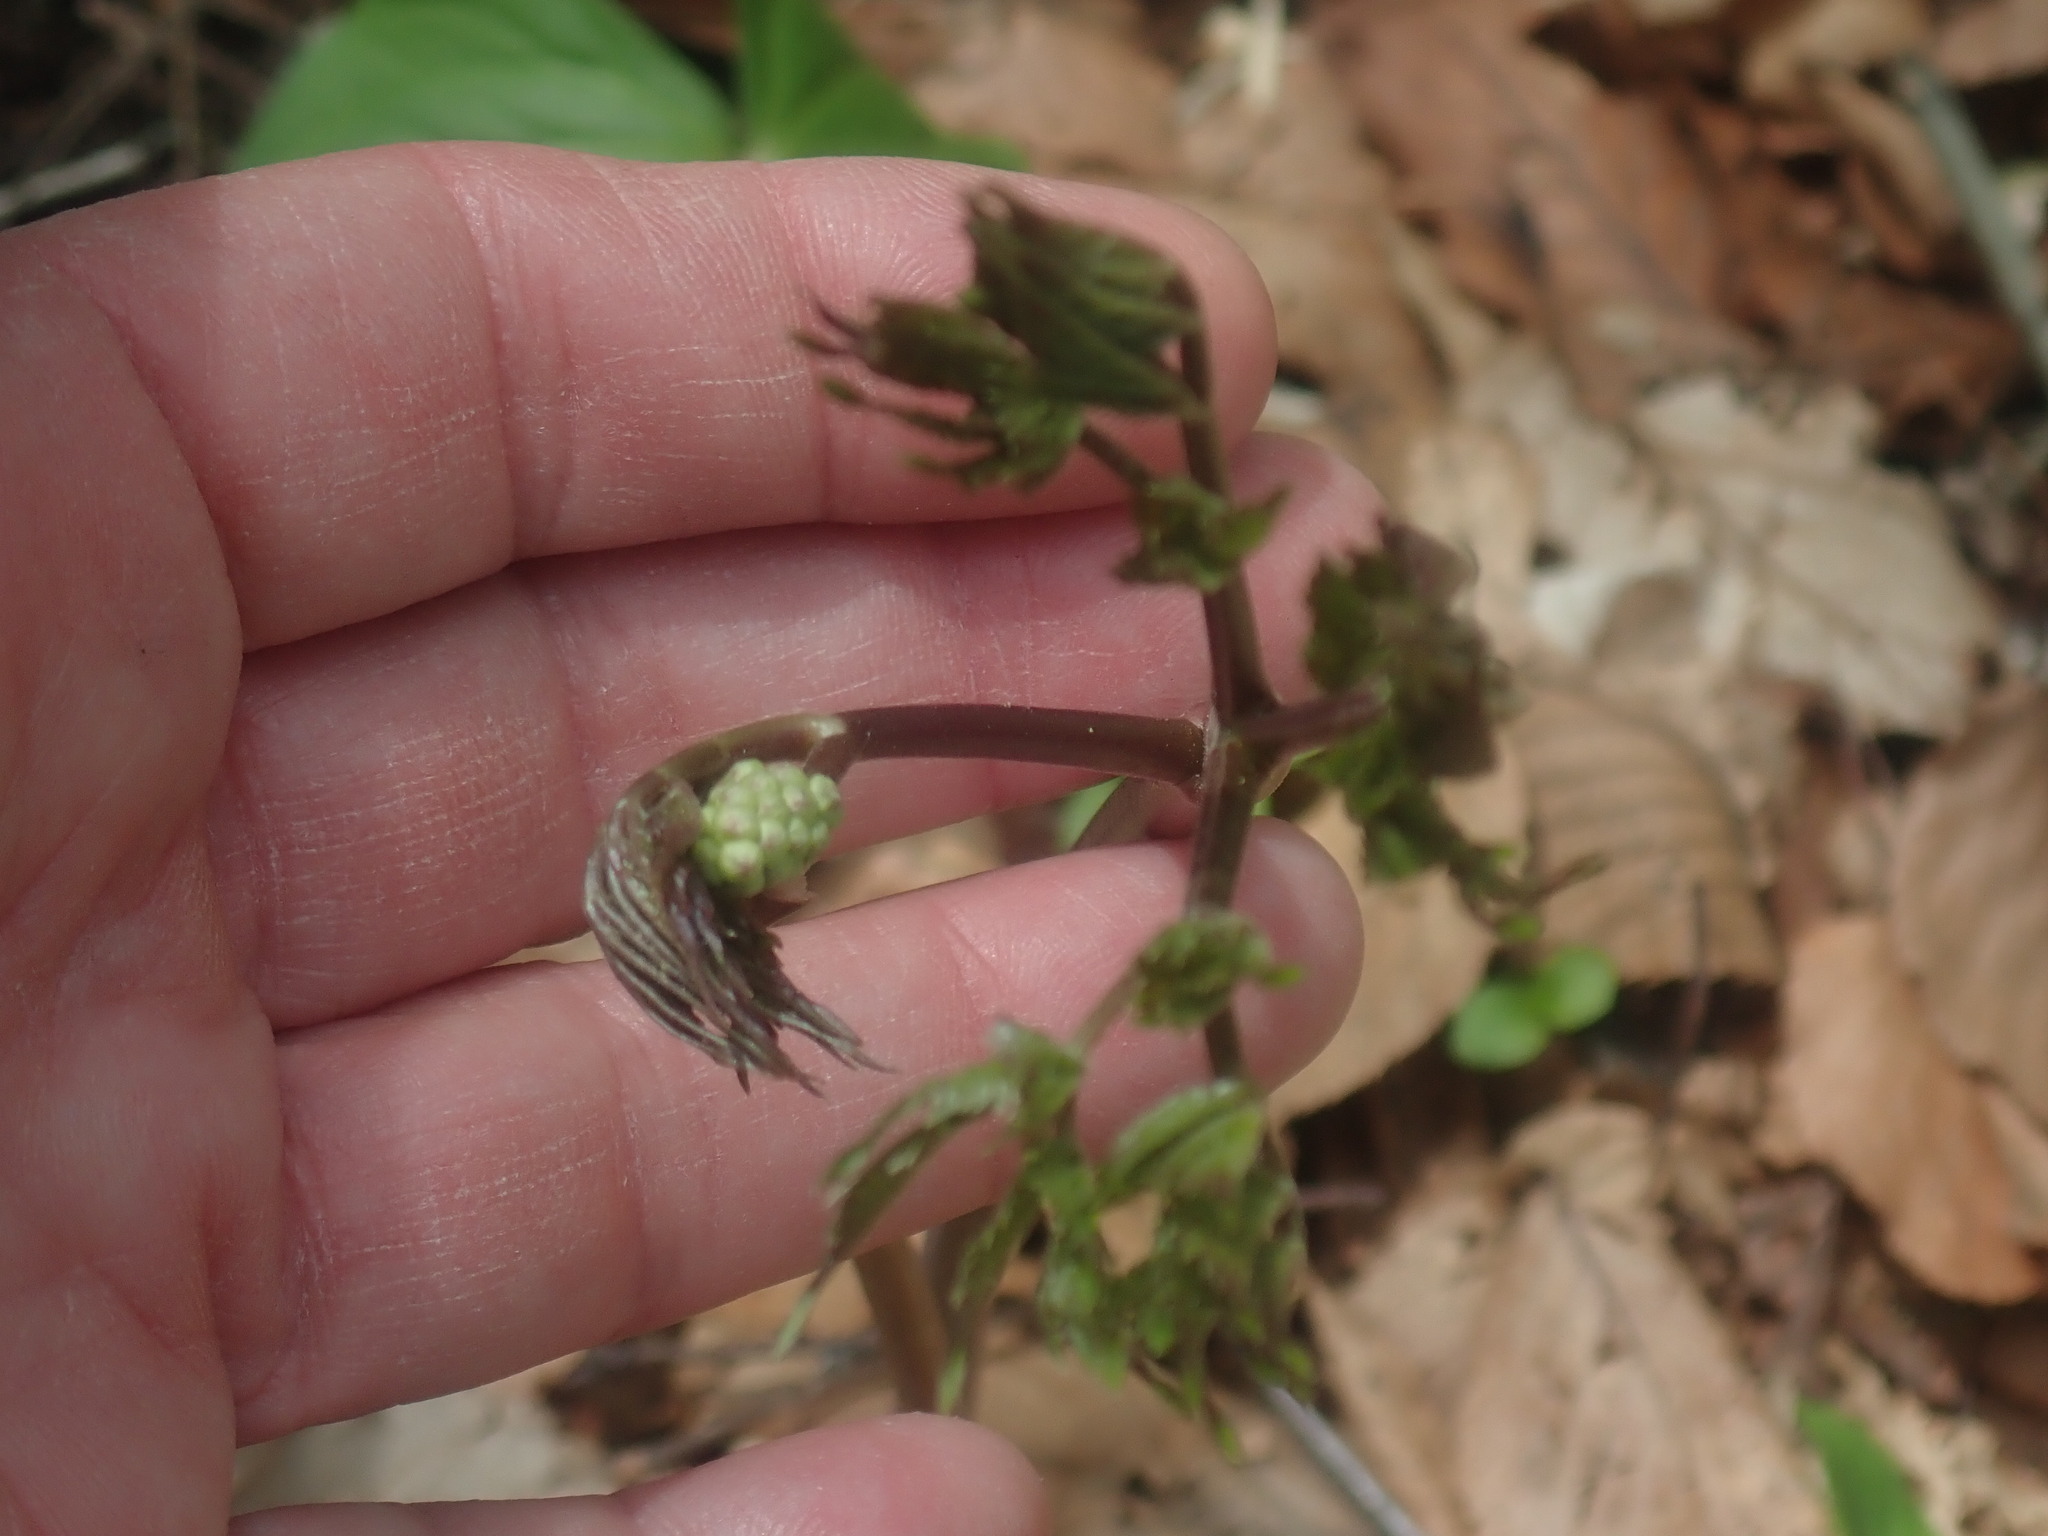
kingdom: Plantae
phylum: Tracheophyta
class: Magnoliopsida
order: Ranunculales
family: Ranunculaceae
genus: Actaea
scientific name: Actaea
